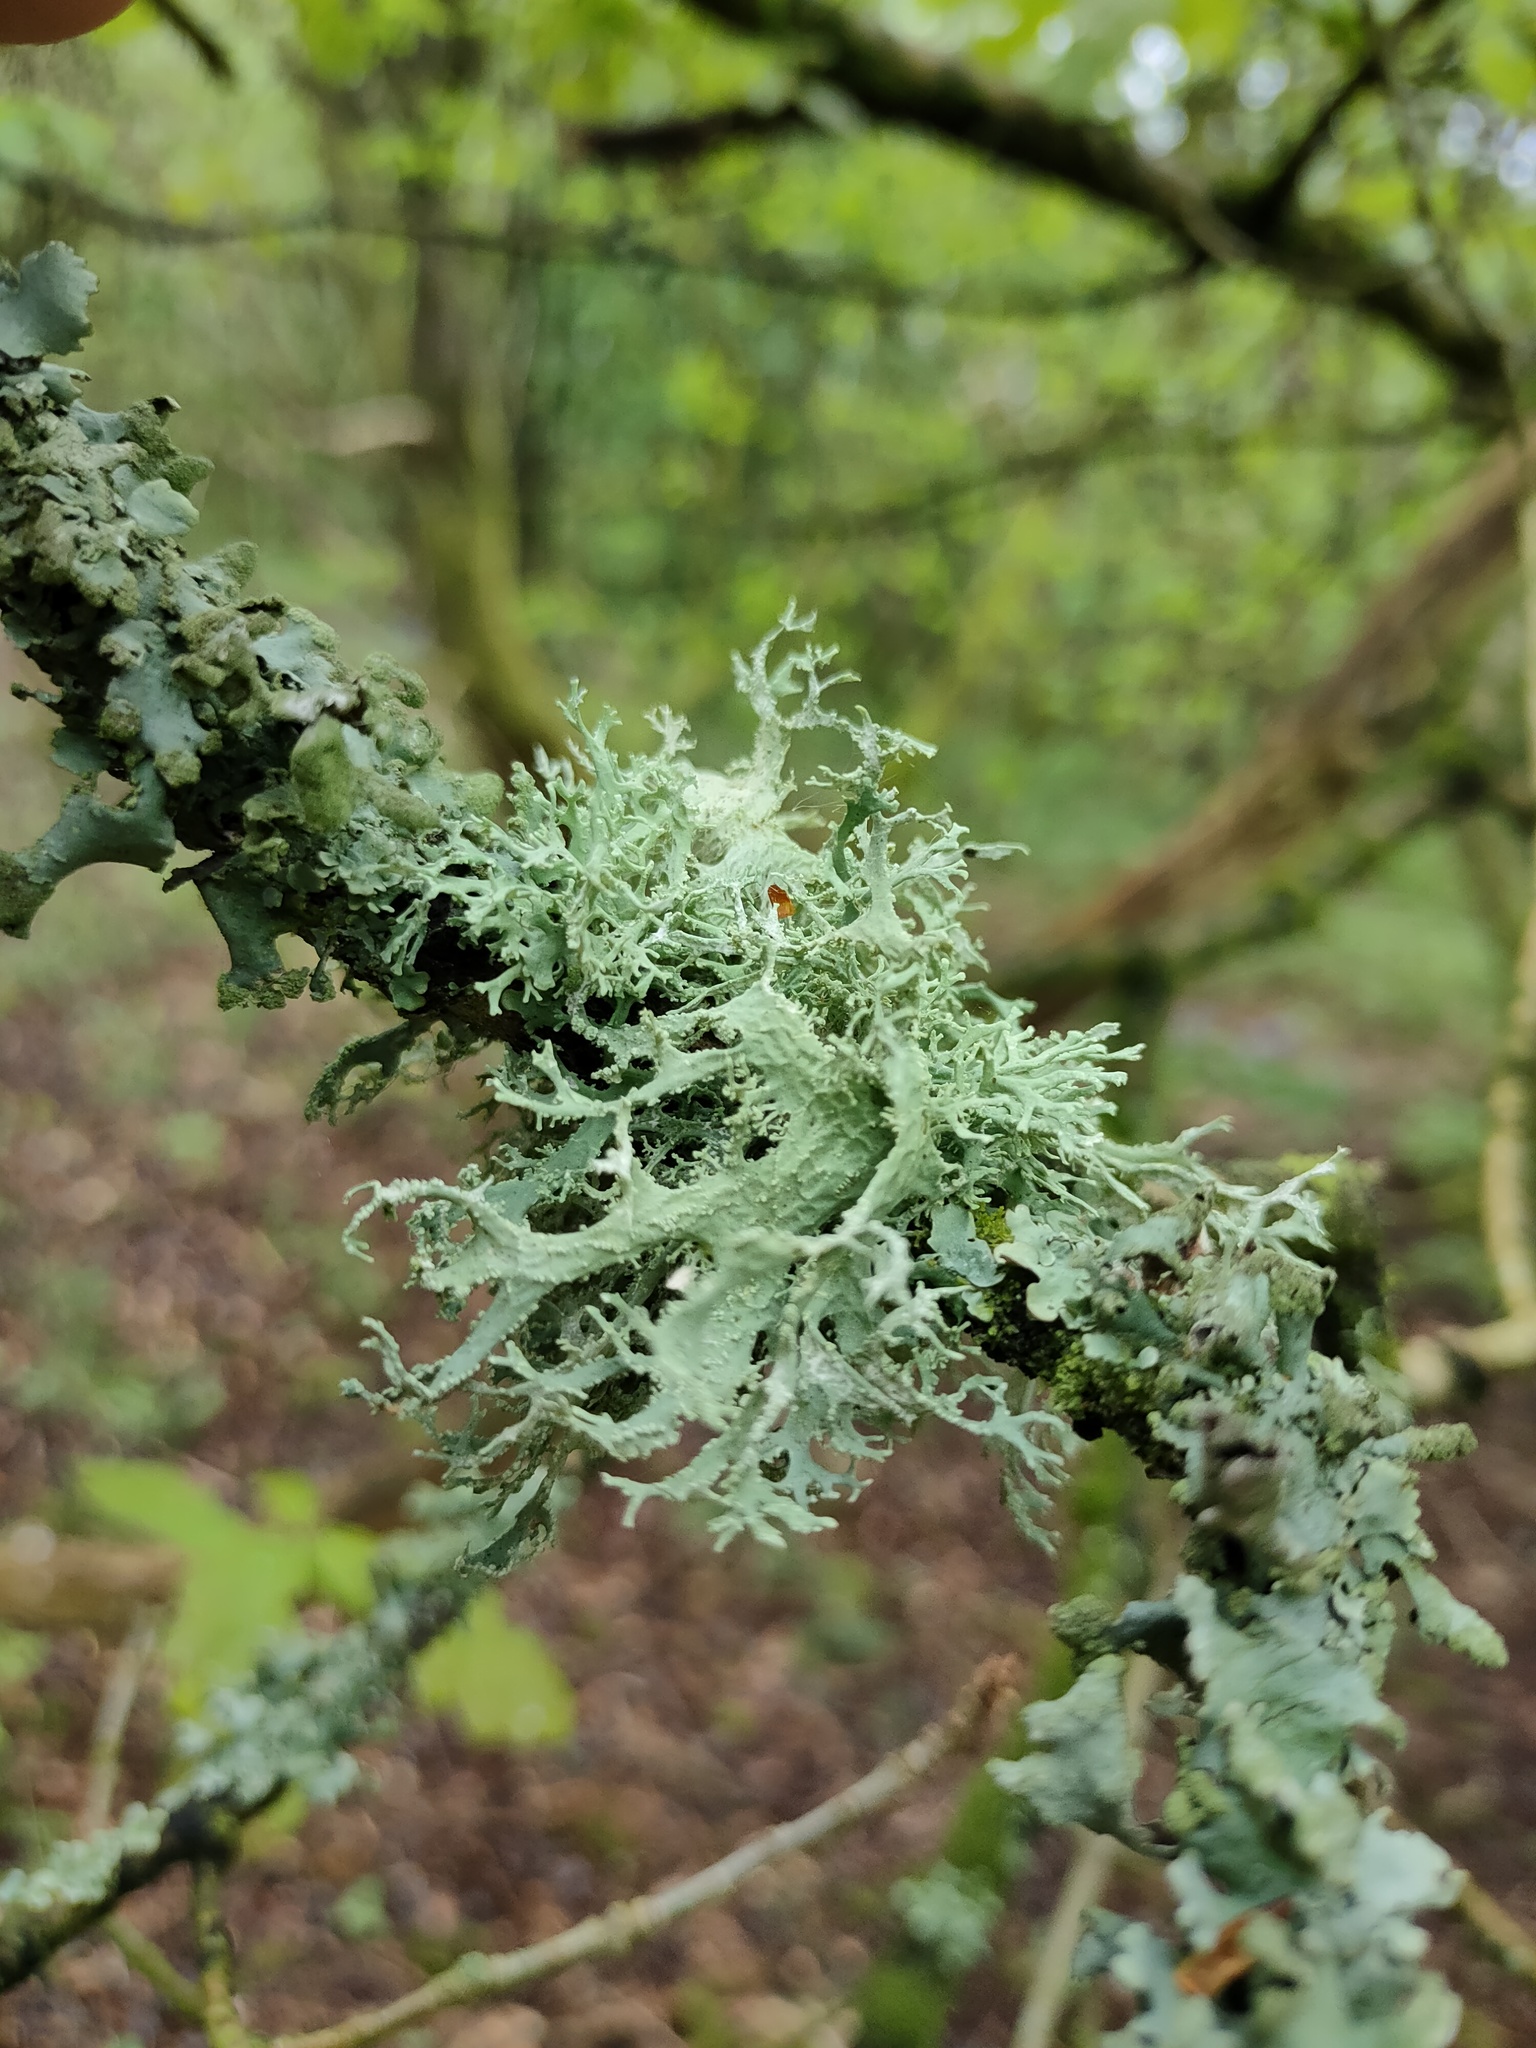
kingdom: Fungi
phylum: Ascomycota
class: Lecanoromycetes
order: Lecanorales
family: Parmeliaceae
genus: Evernia
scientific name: Evernia prunastri
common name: Oak moss
